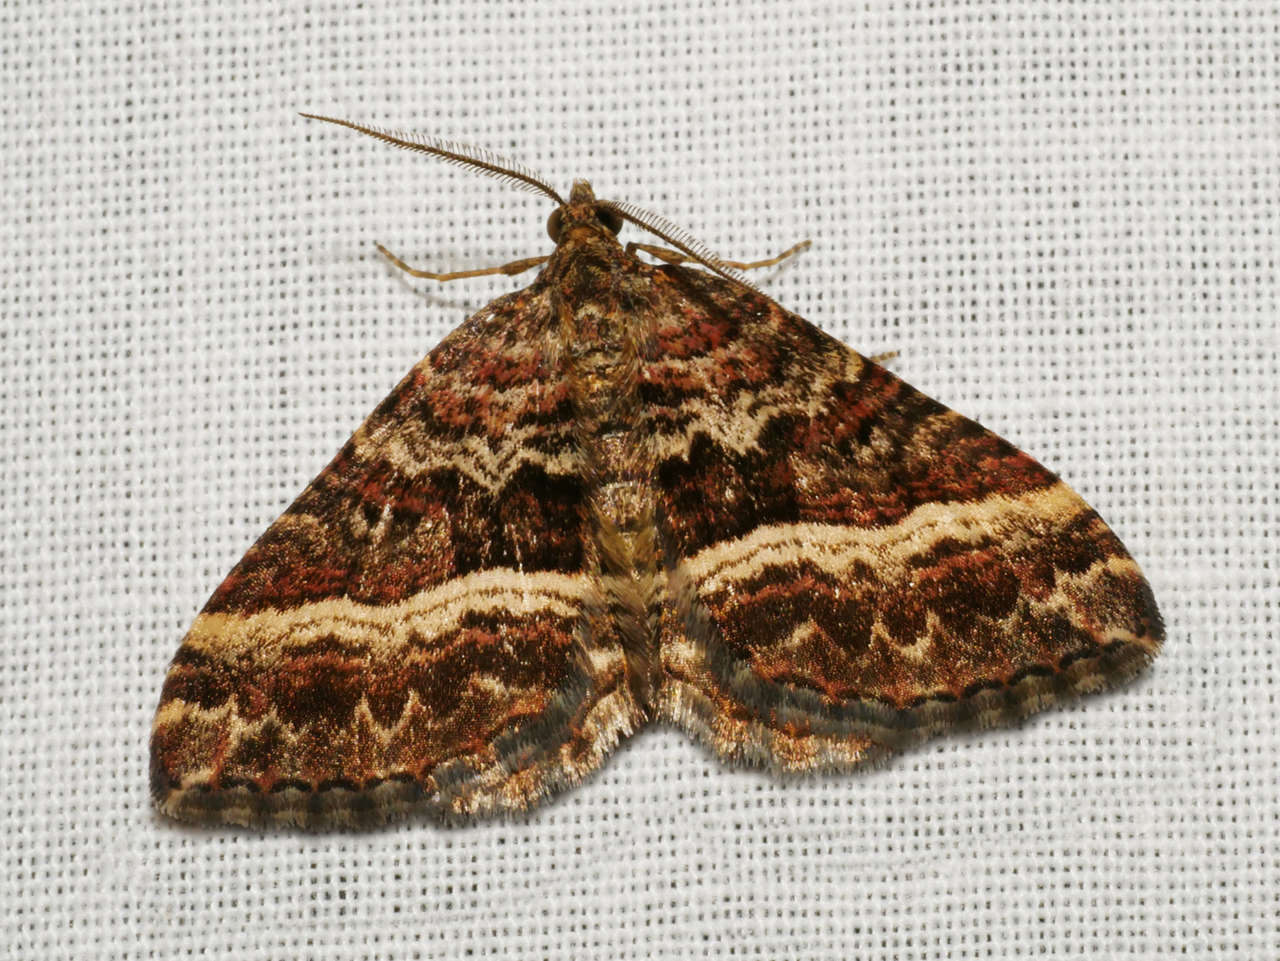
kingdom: Animalia
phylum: Arthropoda
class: Insecta
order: Lepidoptera
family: Geometridae
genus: Chrysolarentia
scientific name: Chrysolarentia vicissata
